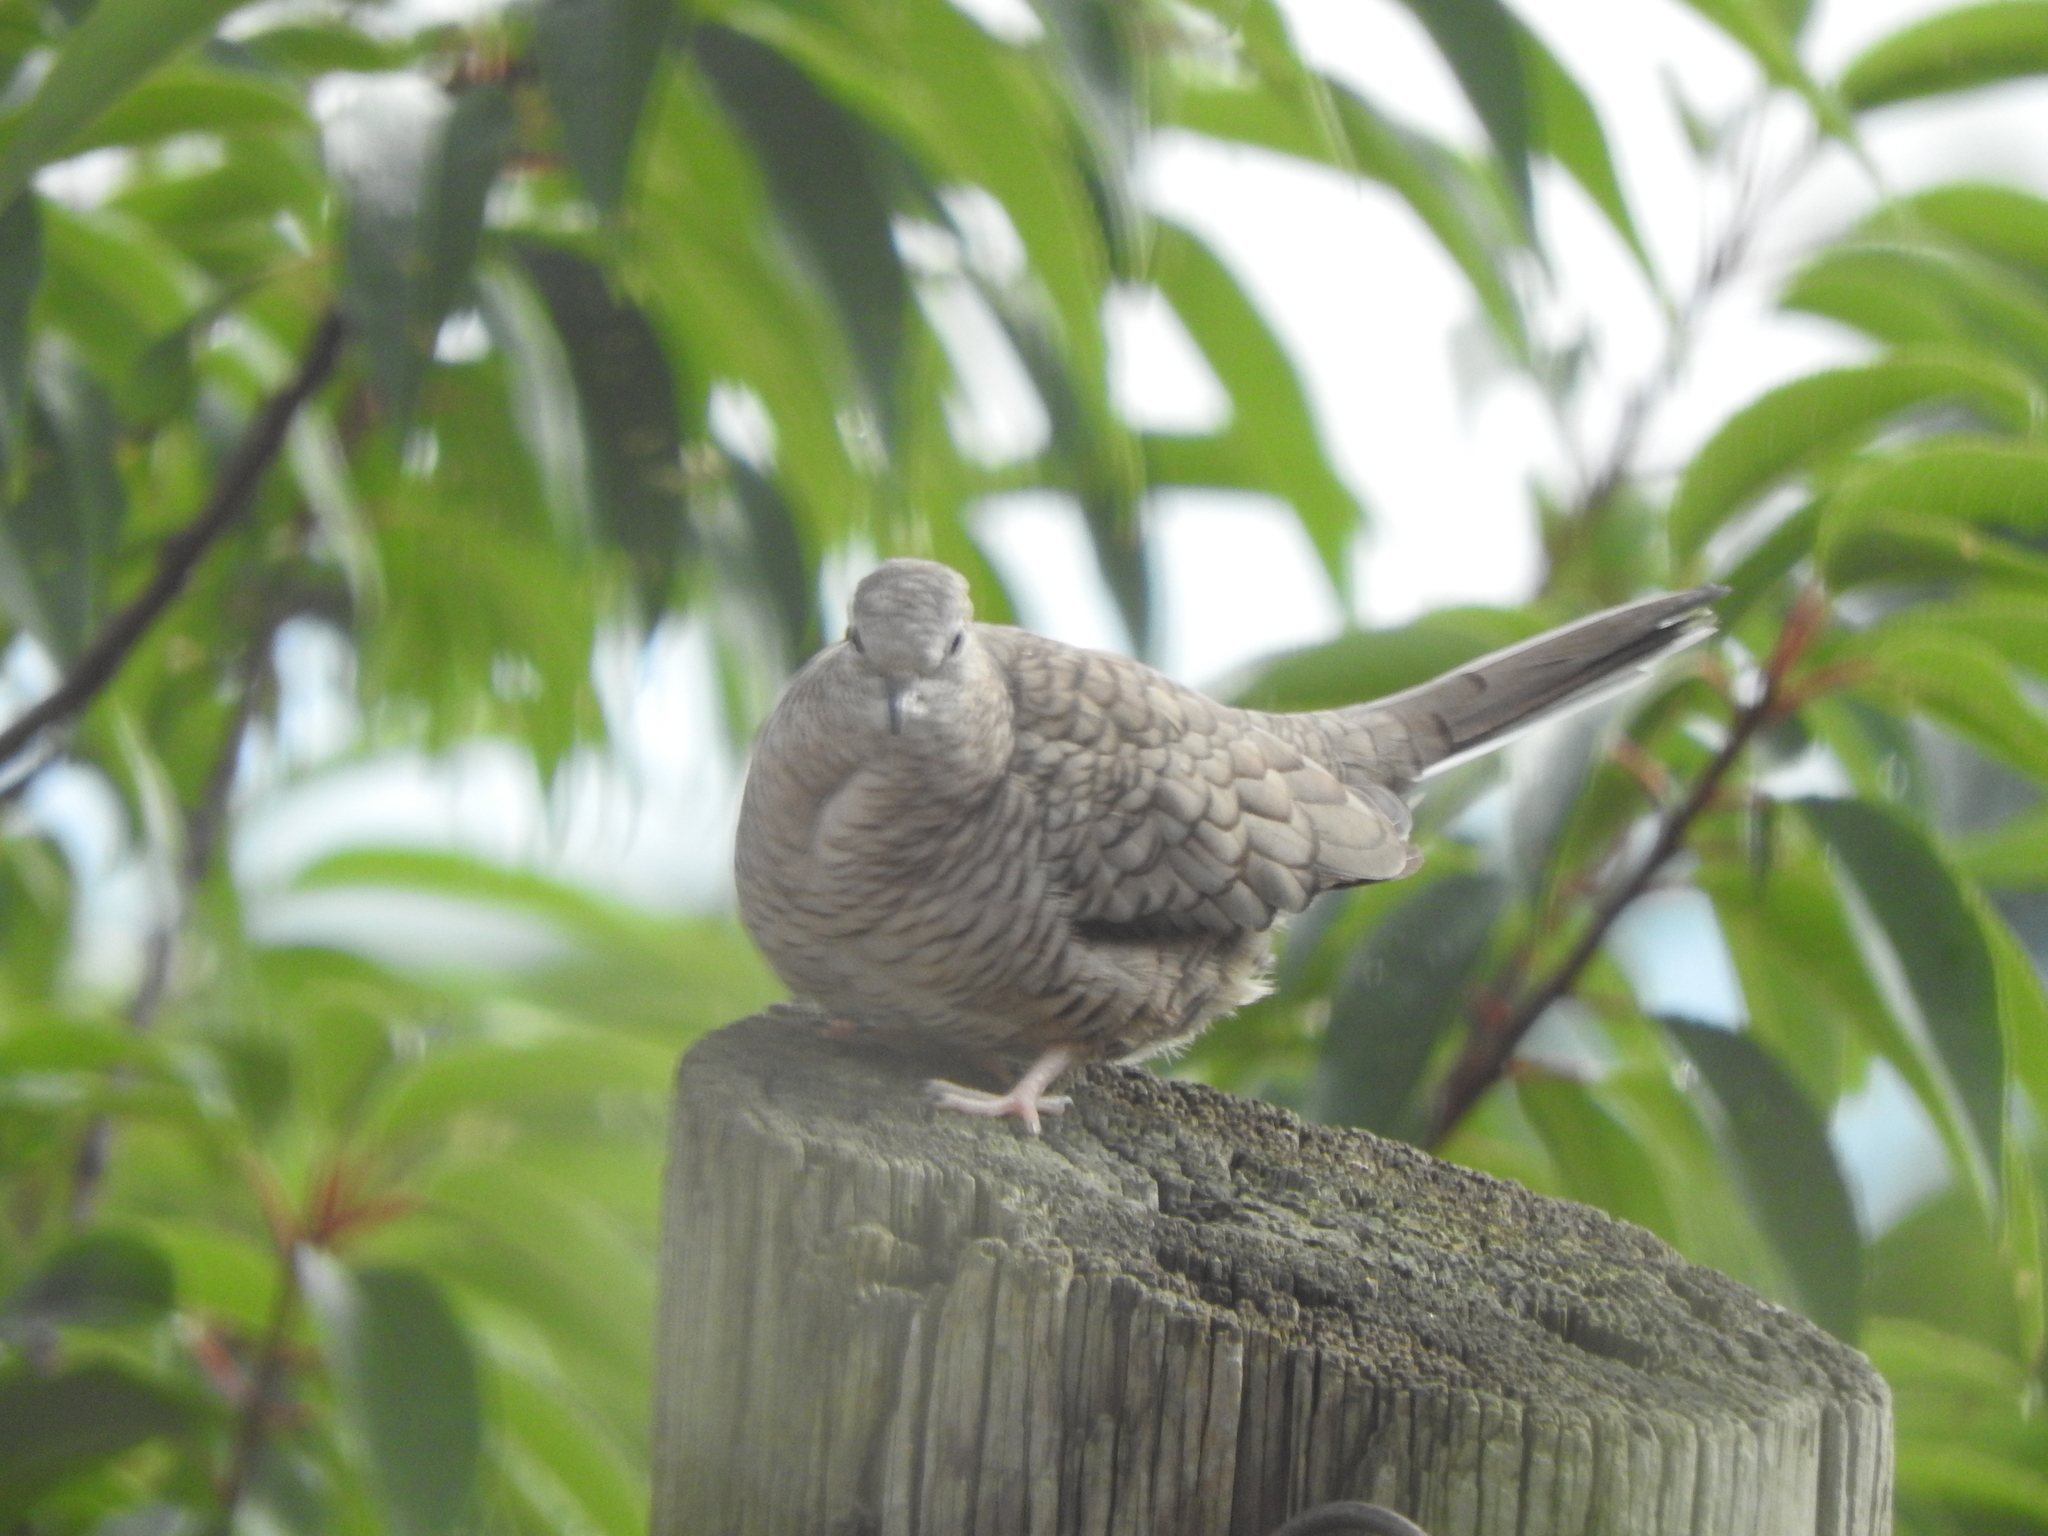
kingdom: Animalia
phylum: Chordata
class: Aves
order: Columbiformes
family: Columbidae
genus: Columbina
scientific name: Columbina inca
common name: Inca dove
